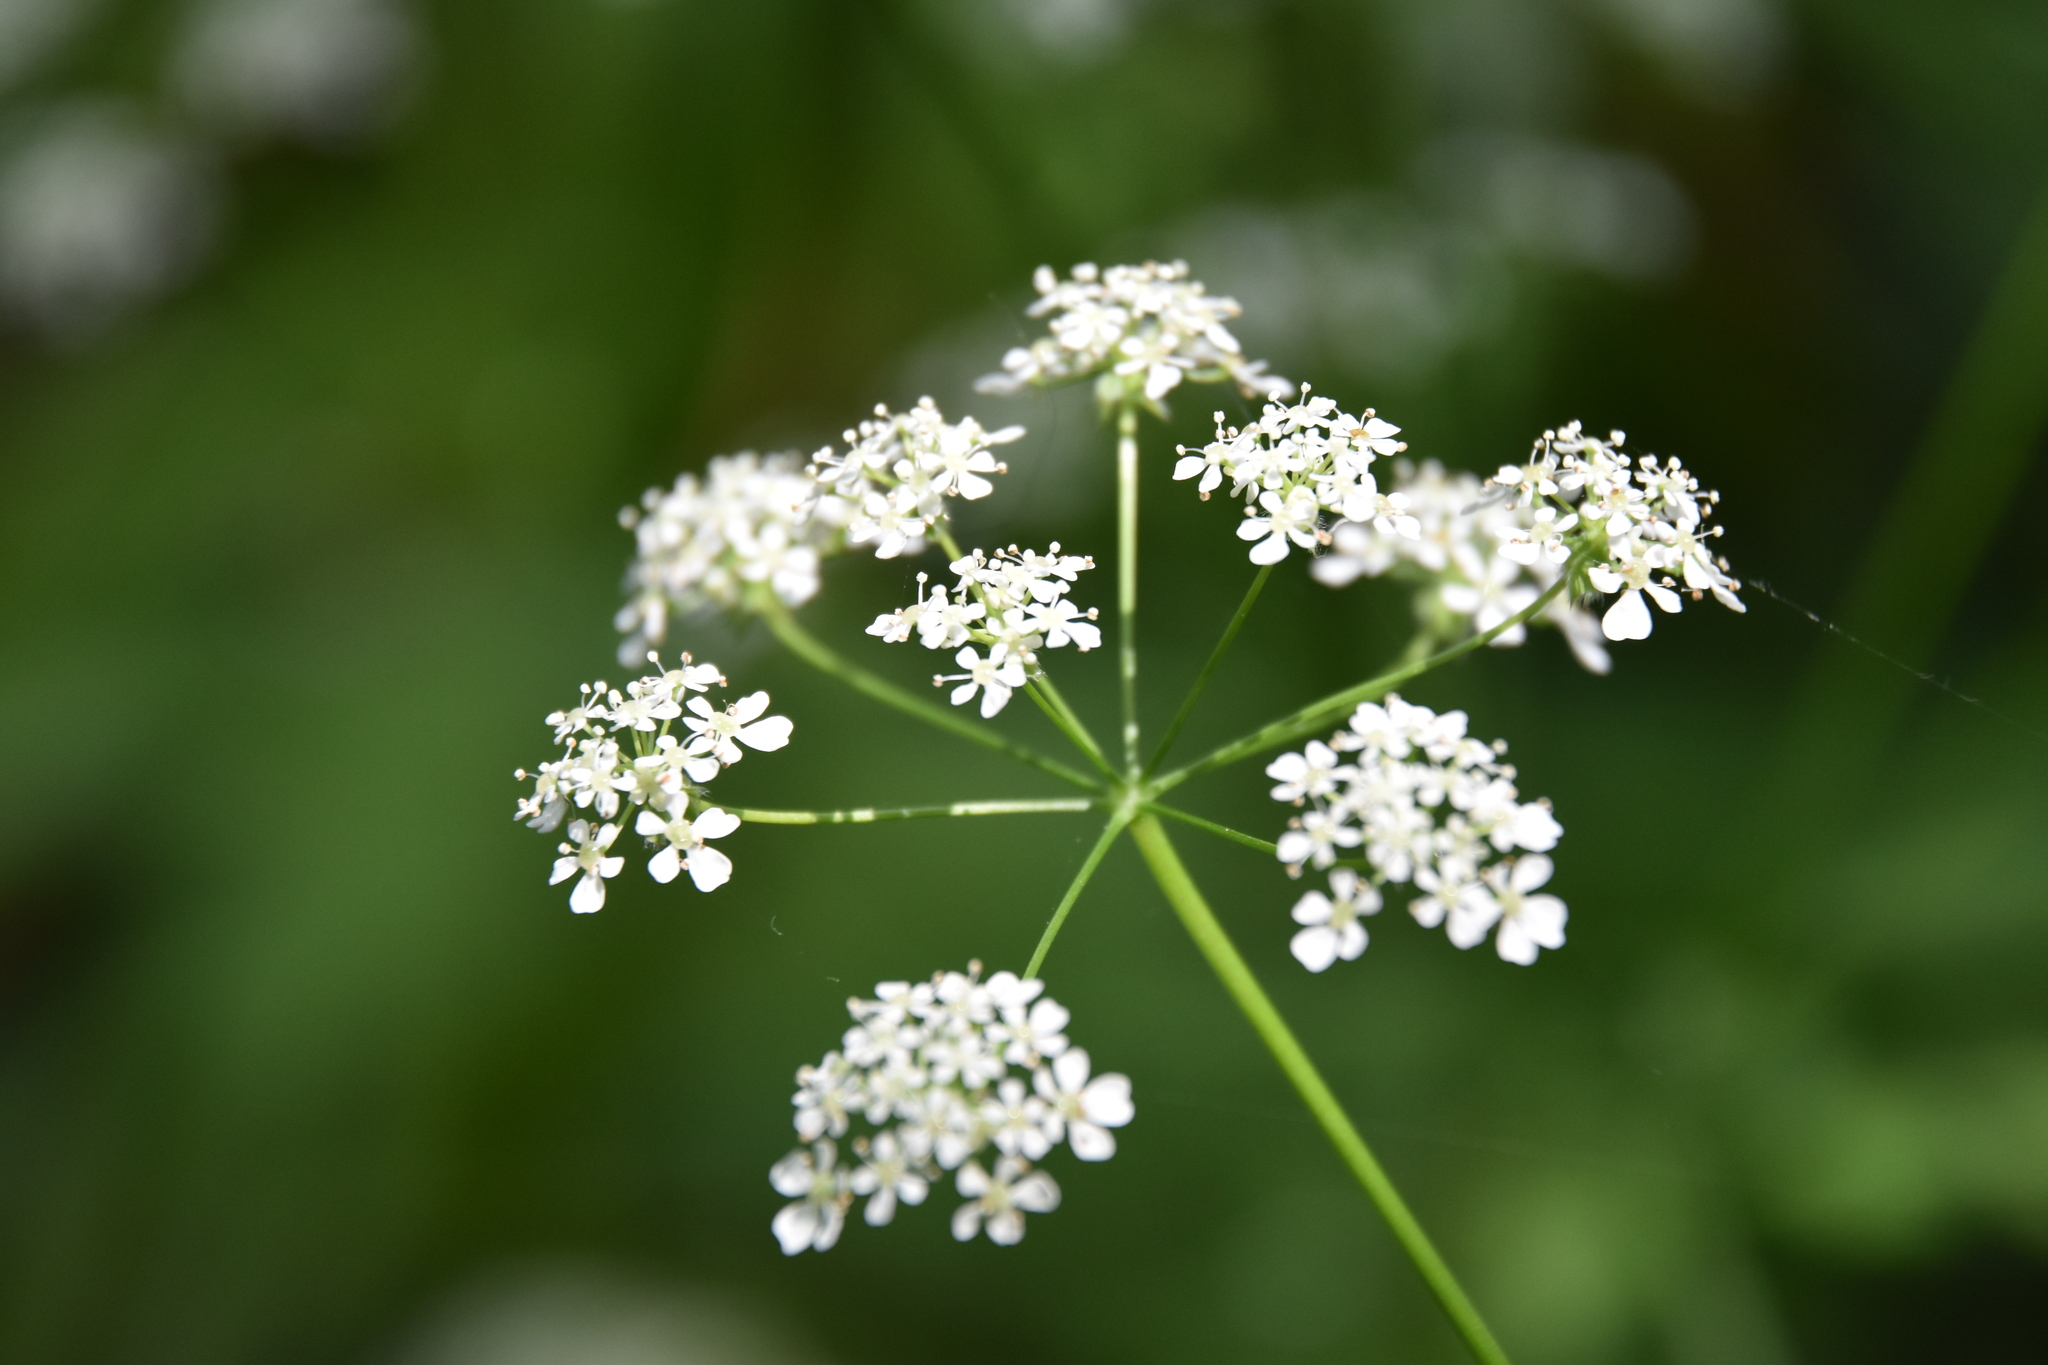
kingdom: Plantae
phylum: Tracheophyta
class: Magnoliopsida
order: Apiales
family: Apiaceae
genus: Anthriscus
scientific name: Anthriscus sylvestris
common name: Cow parsley
